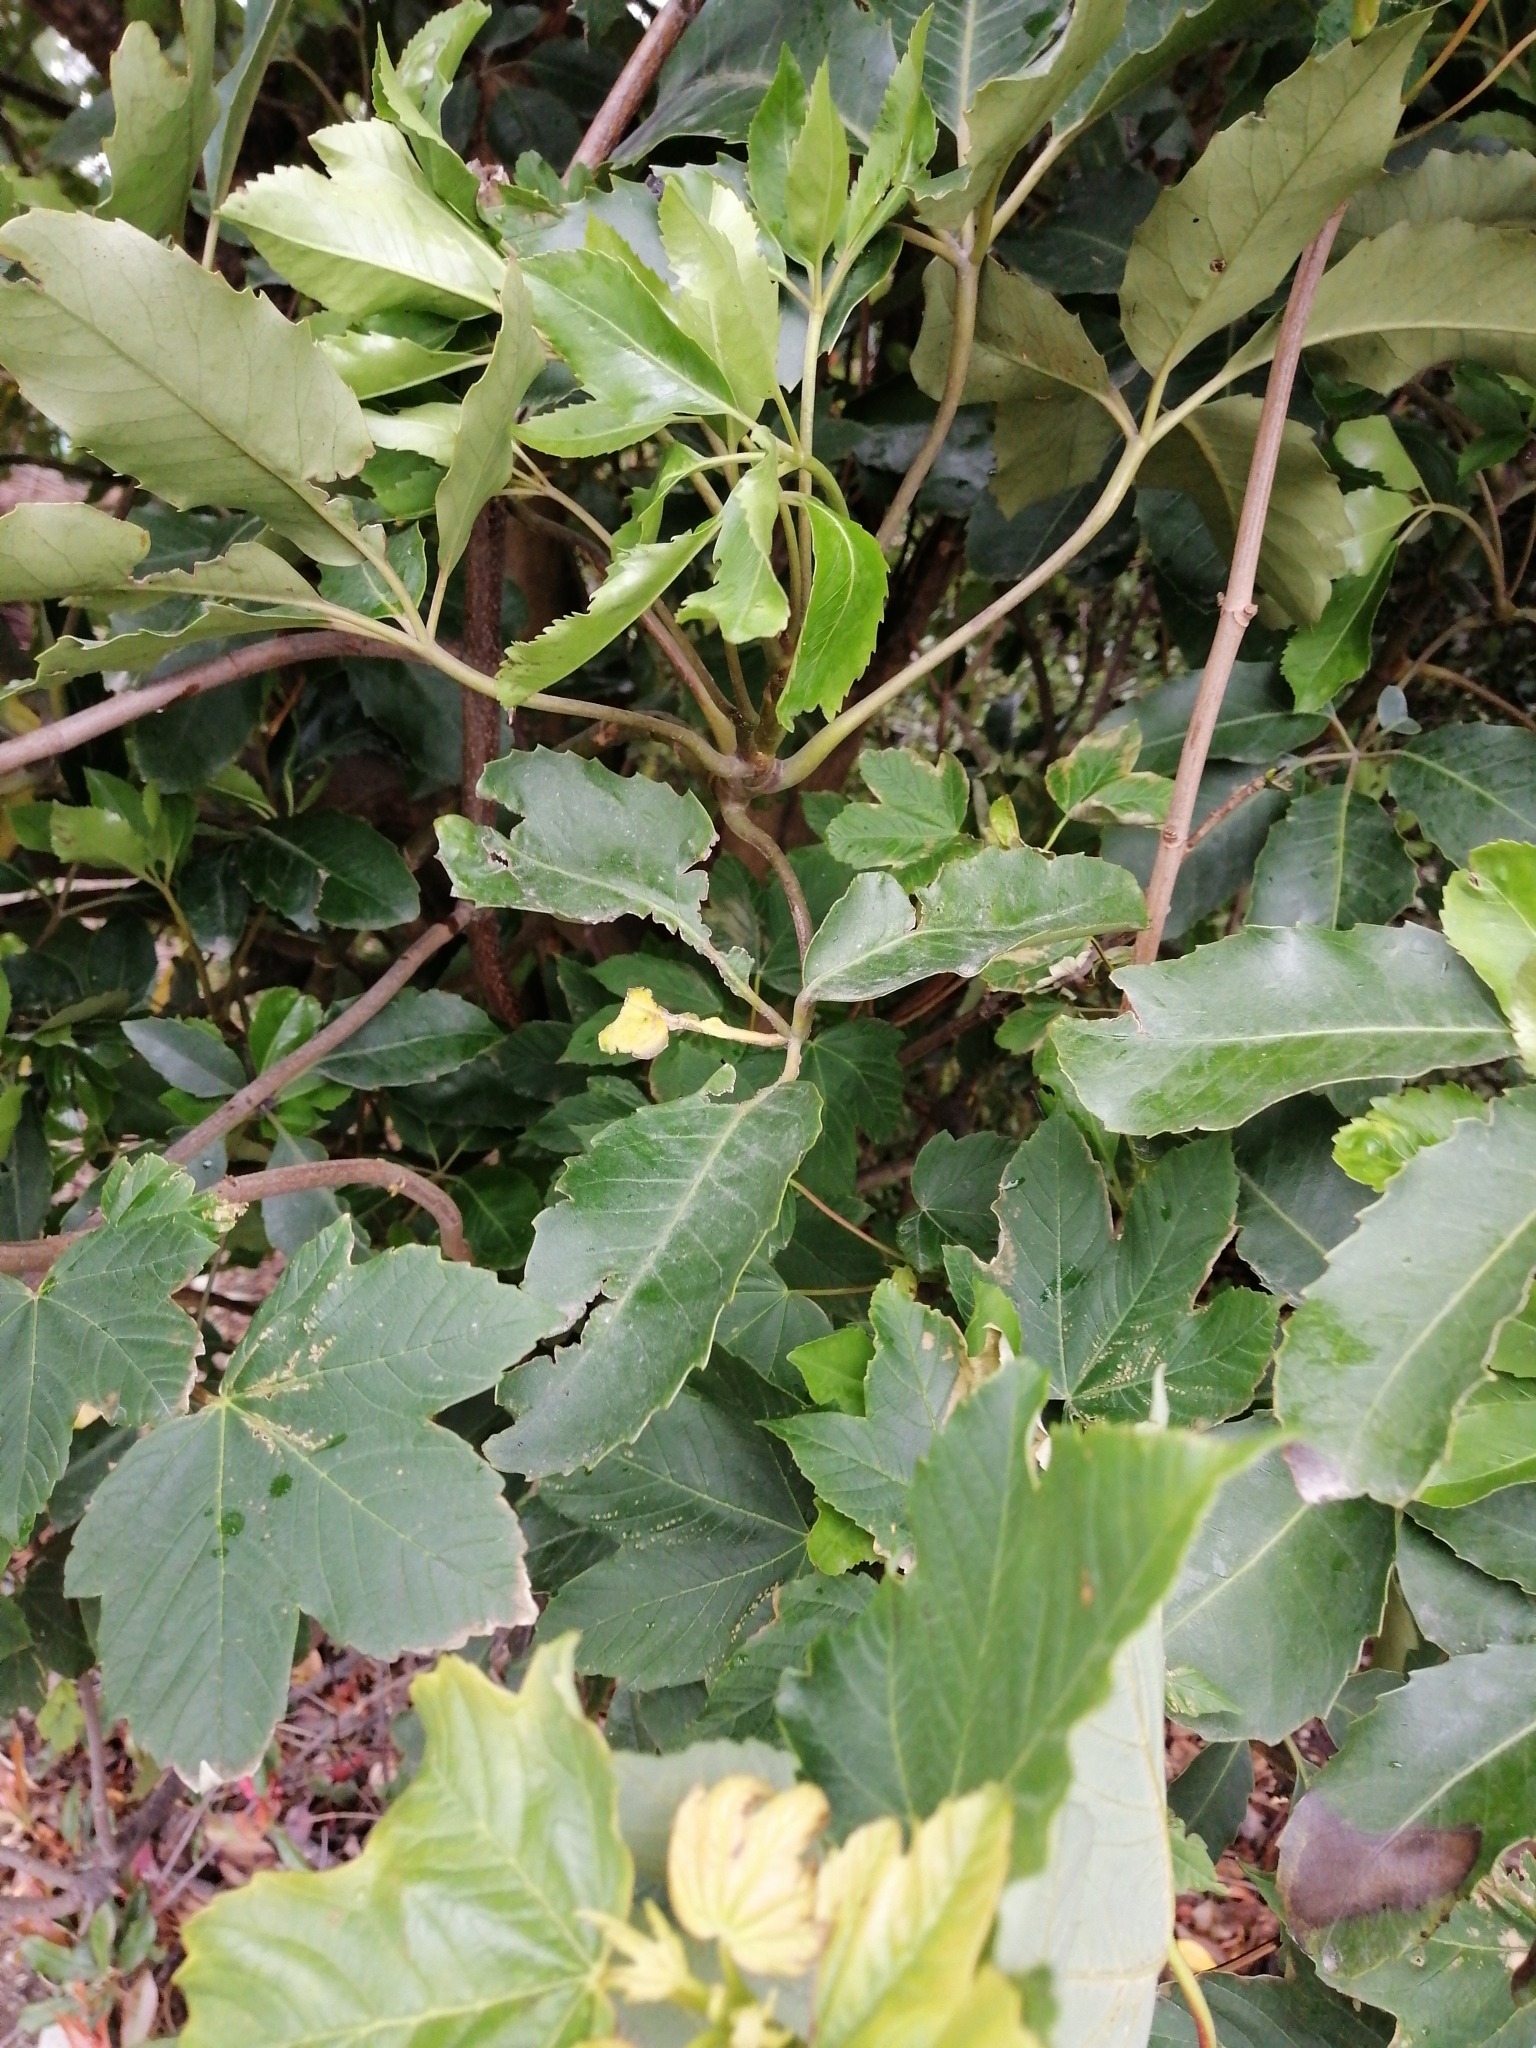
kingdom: Plantae
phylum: Tracheophyta
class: Magnoliopsida
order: Apiales
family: Araliaceae
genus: Neopanax
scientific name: Neopanax arboreus
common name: Five-fingers
